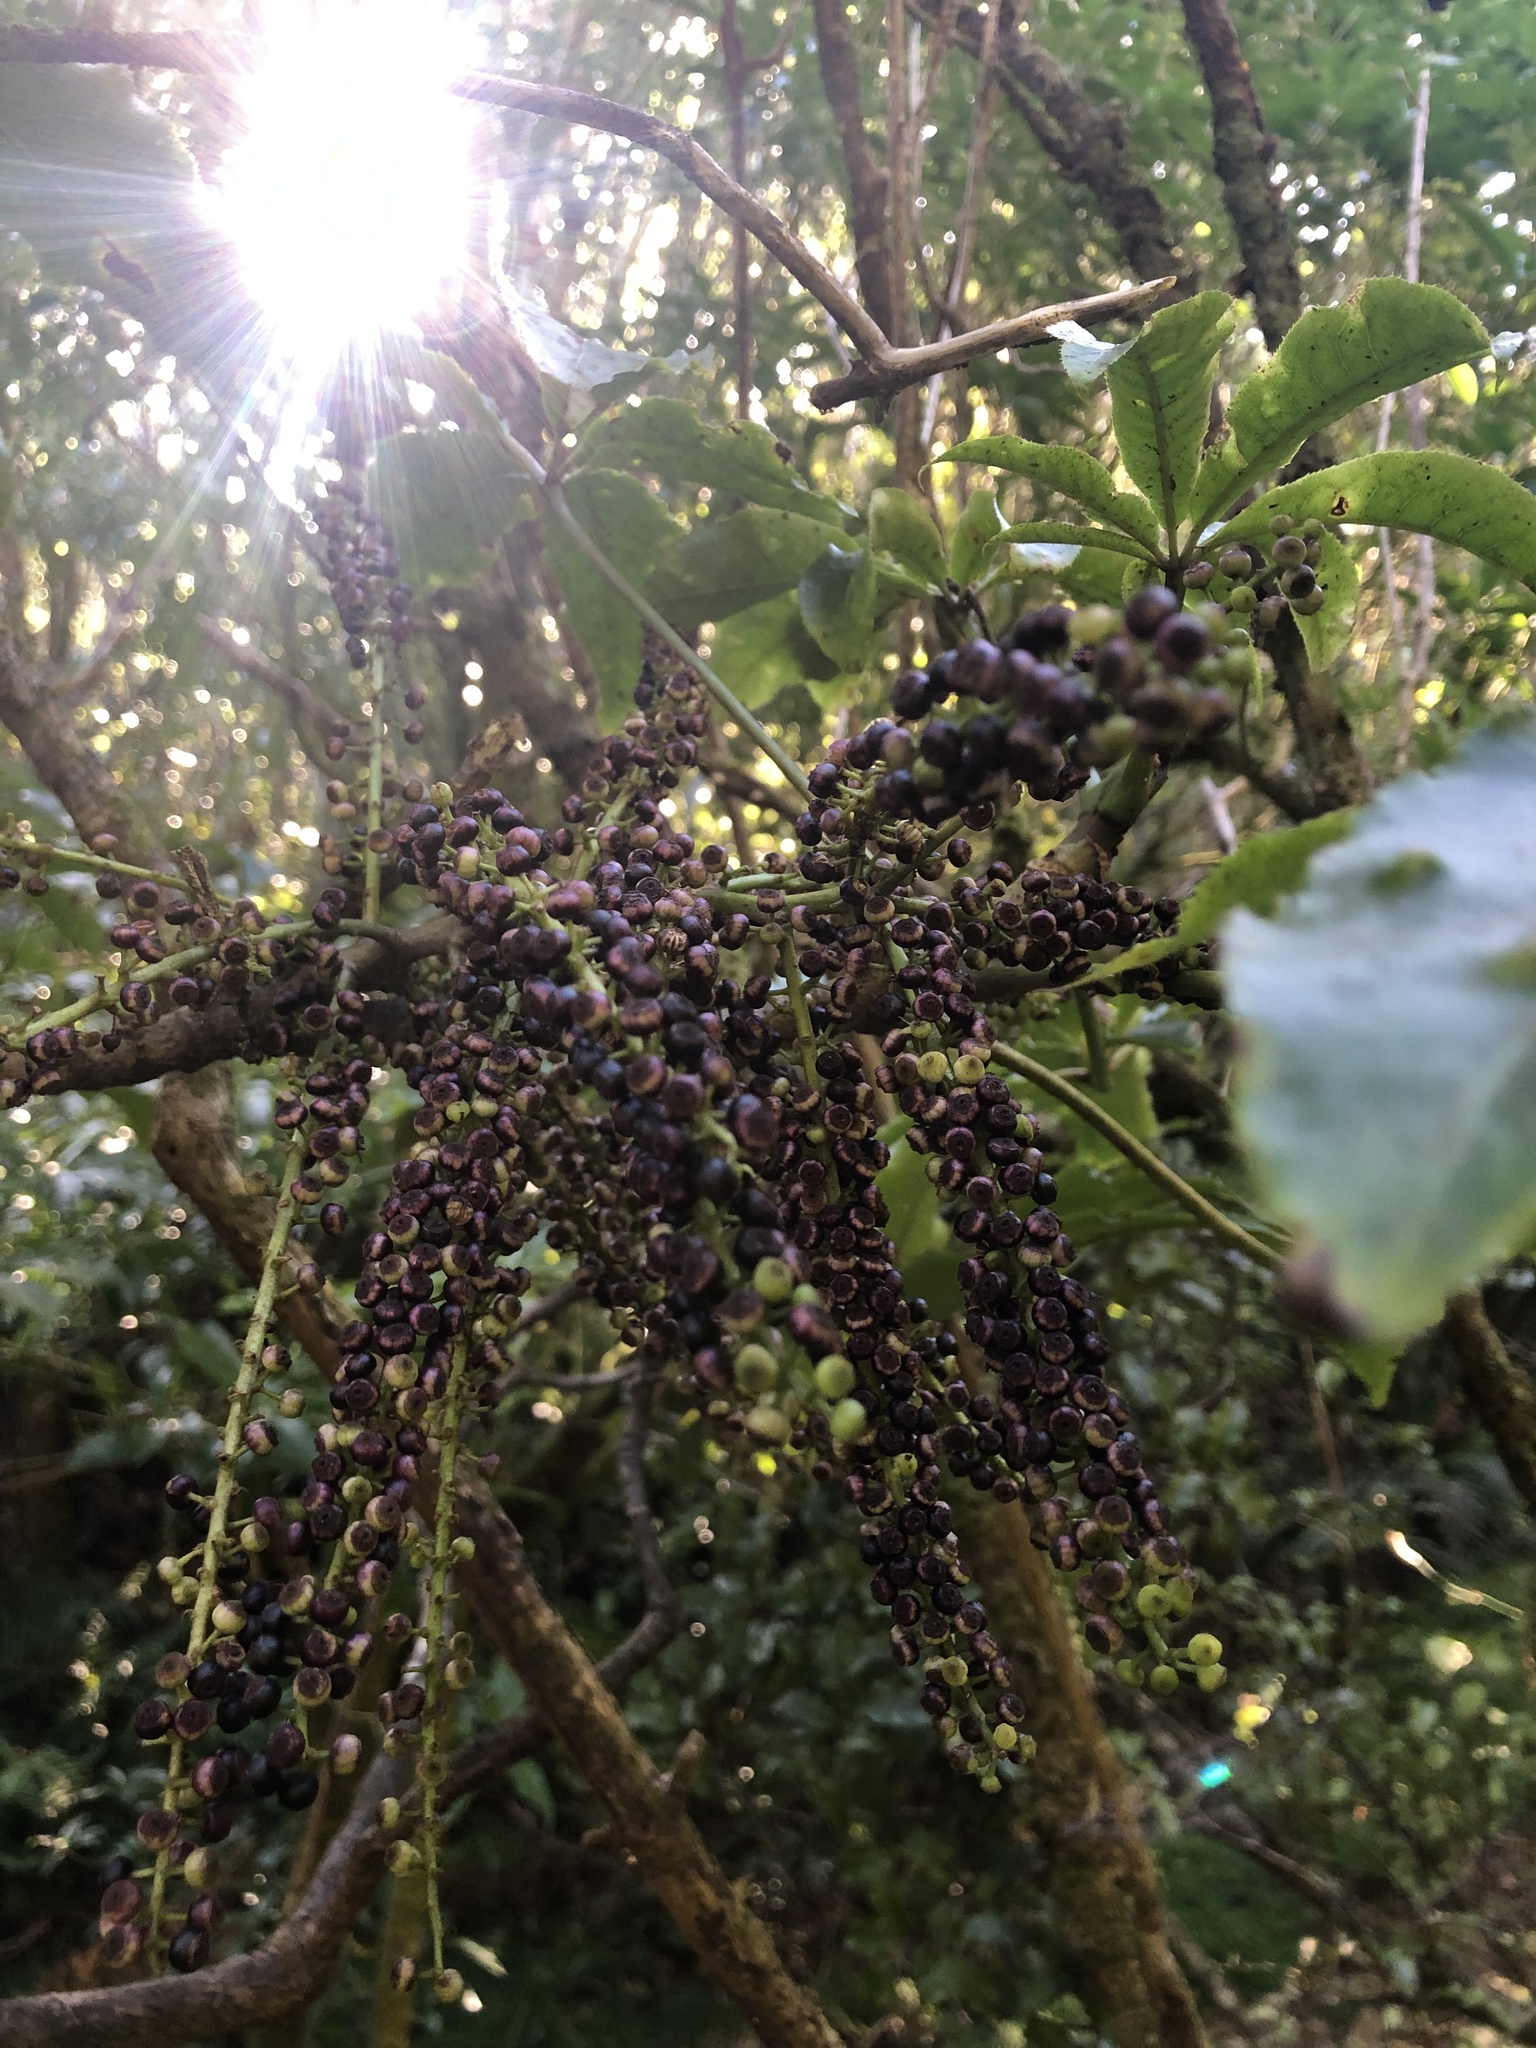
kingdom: Plantae
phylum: Tracheophyta
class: Magnoliopsida
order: Apiales
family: Araliaceae
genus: Schefflera
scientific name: Schefflera digitata
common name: Pate
